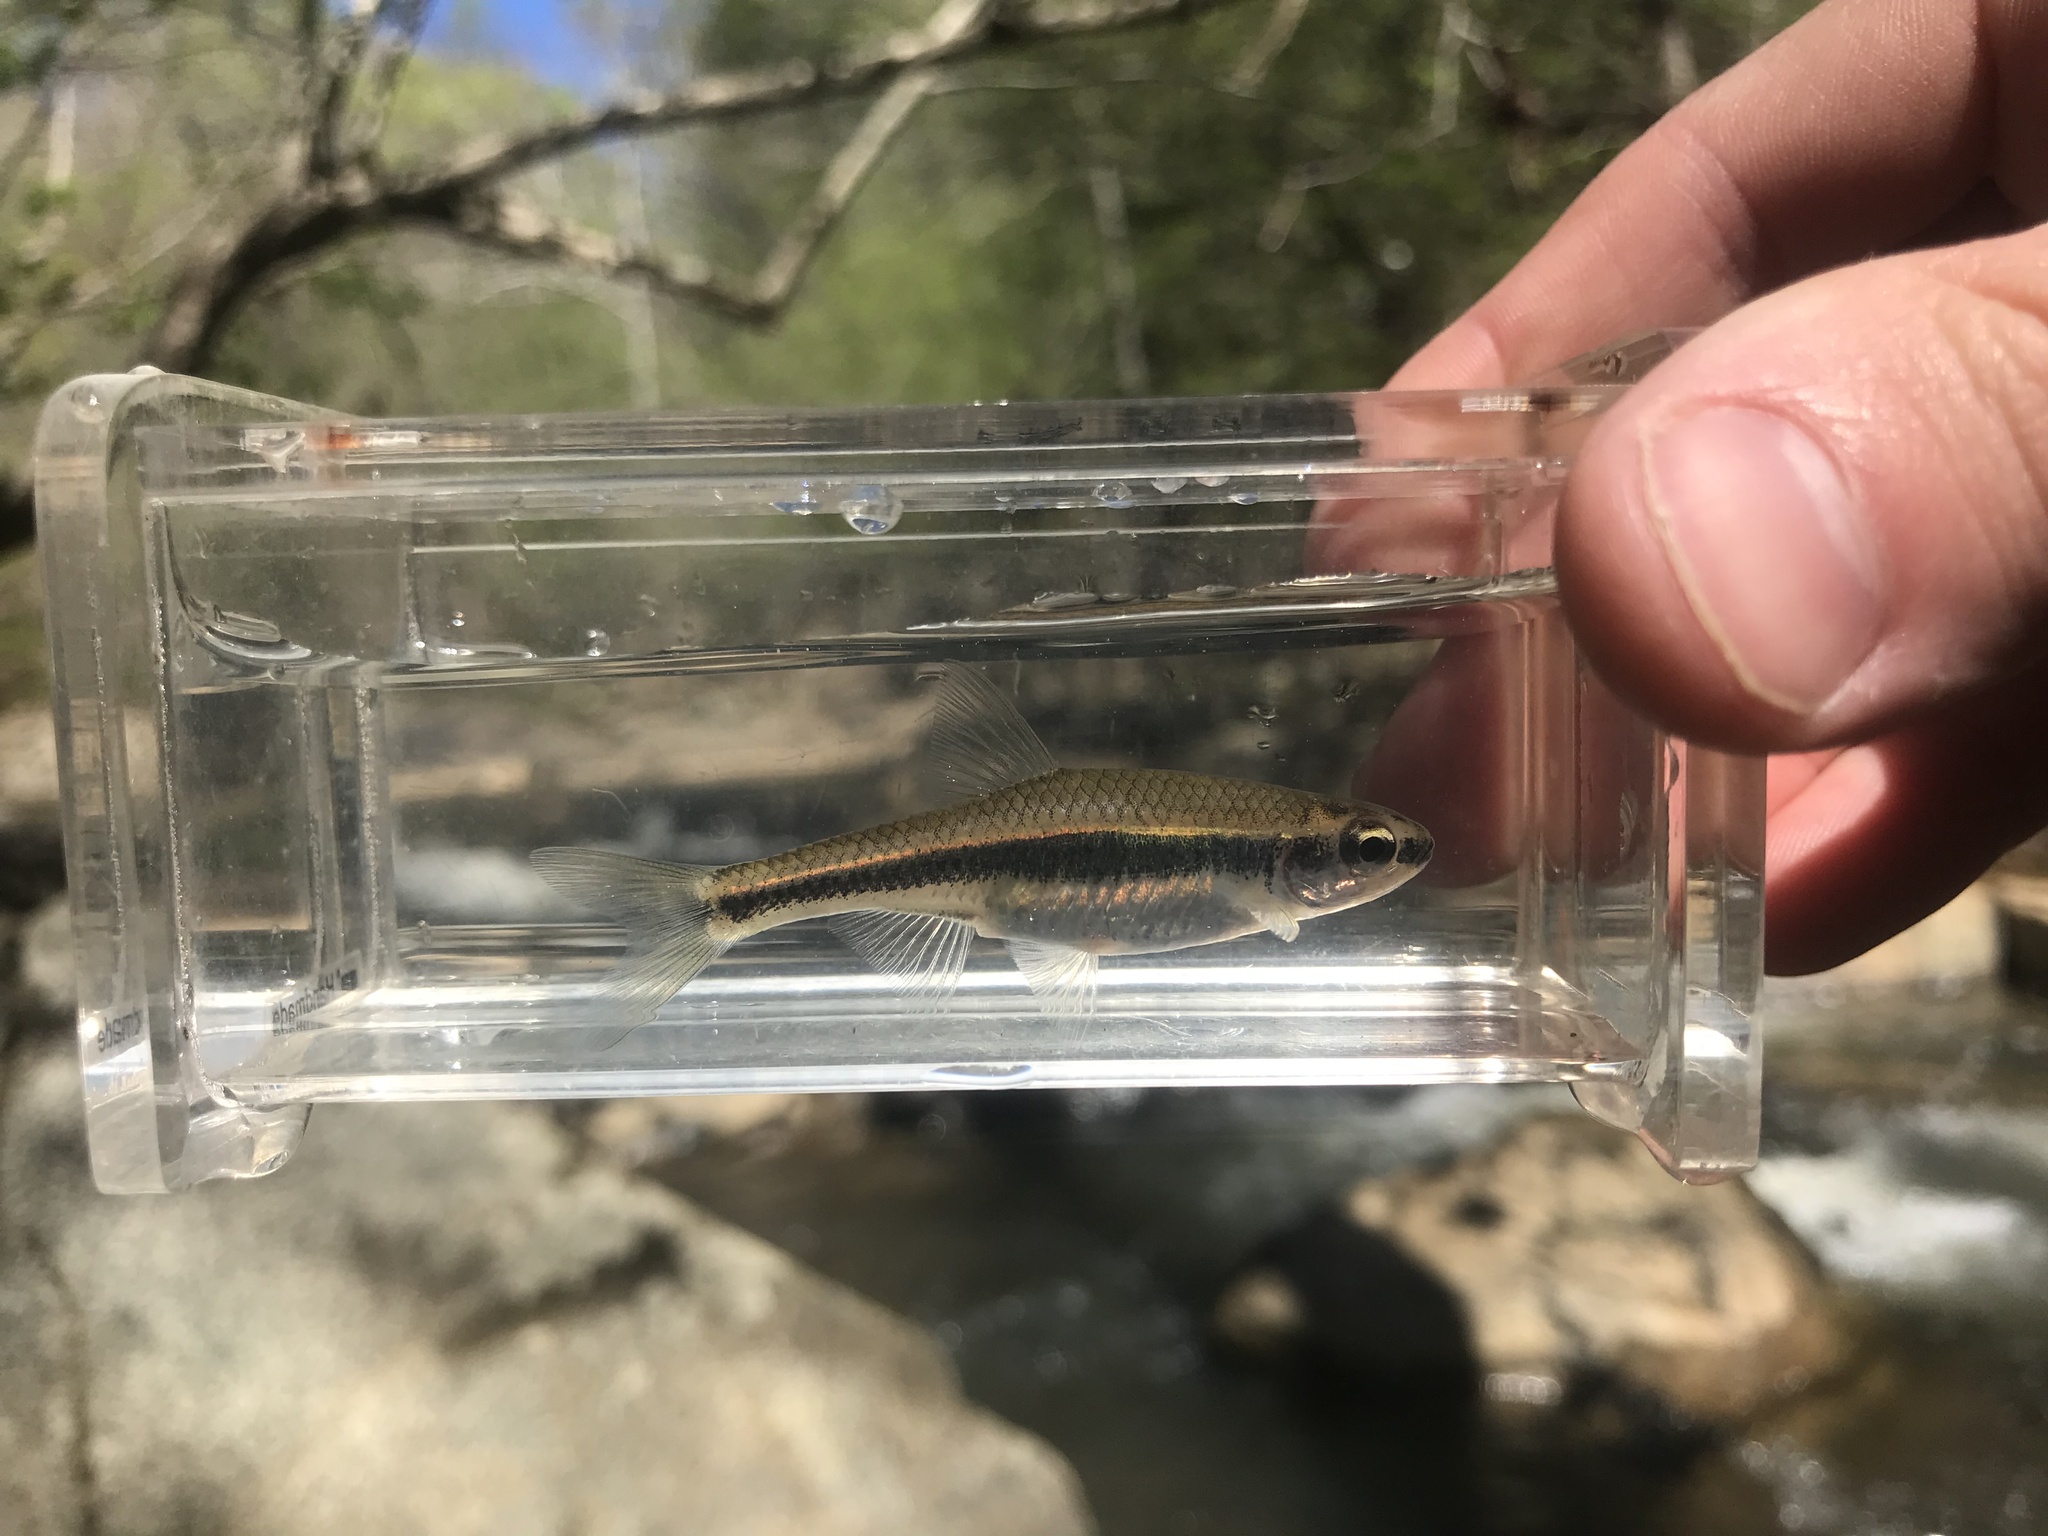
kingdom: Animalia
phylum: Chordata
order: Cypriniformes
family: Cyprinidae
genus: Notropis
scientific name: Notropis
